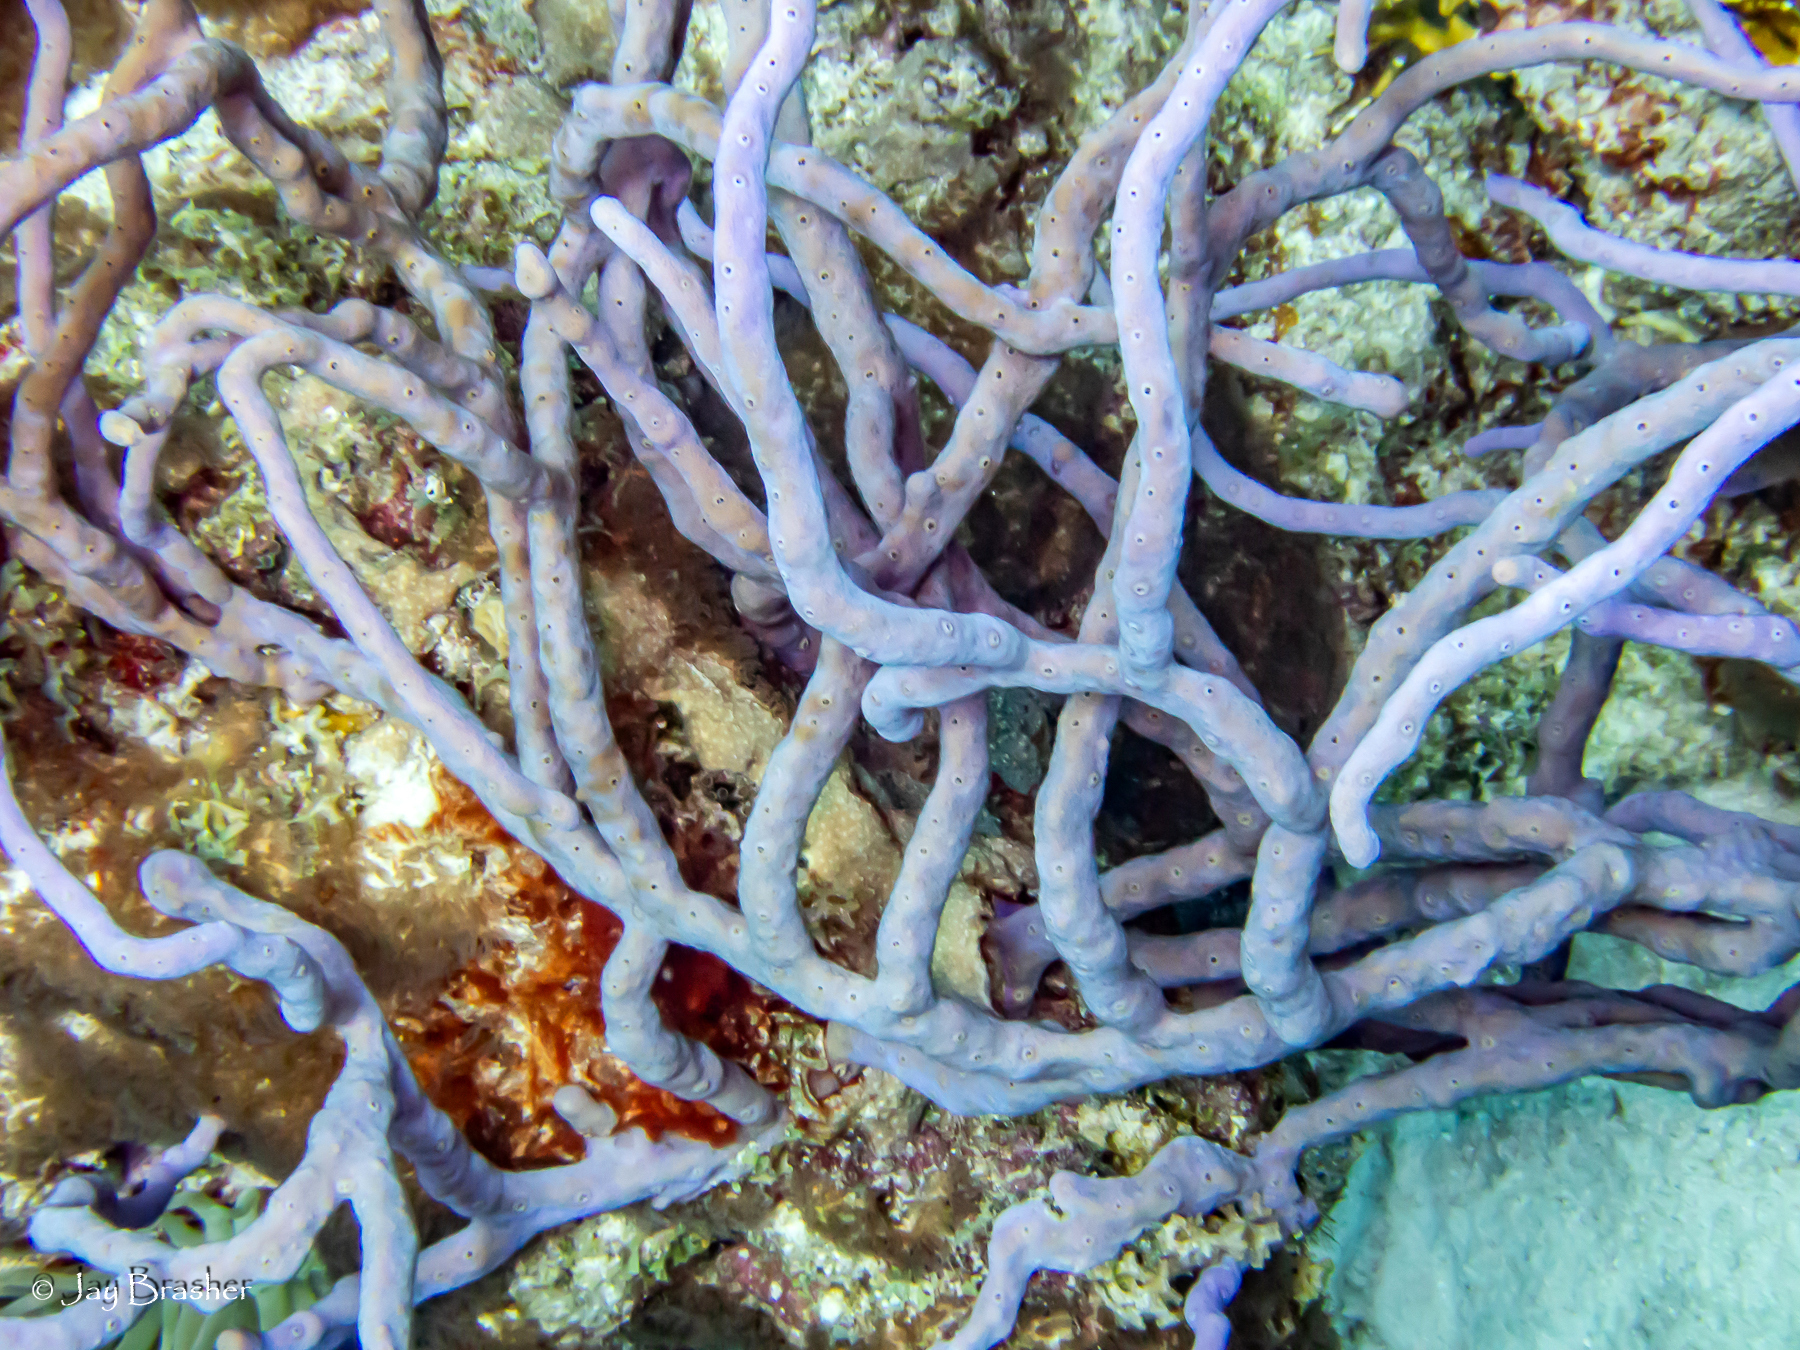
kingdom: Animalia
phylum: Porifera
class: Demospongiae
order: Verongiida
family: Aplysinidae
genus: Aplysina
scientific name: Aplysina cauliformis
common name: Branching candle sponge
